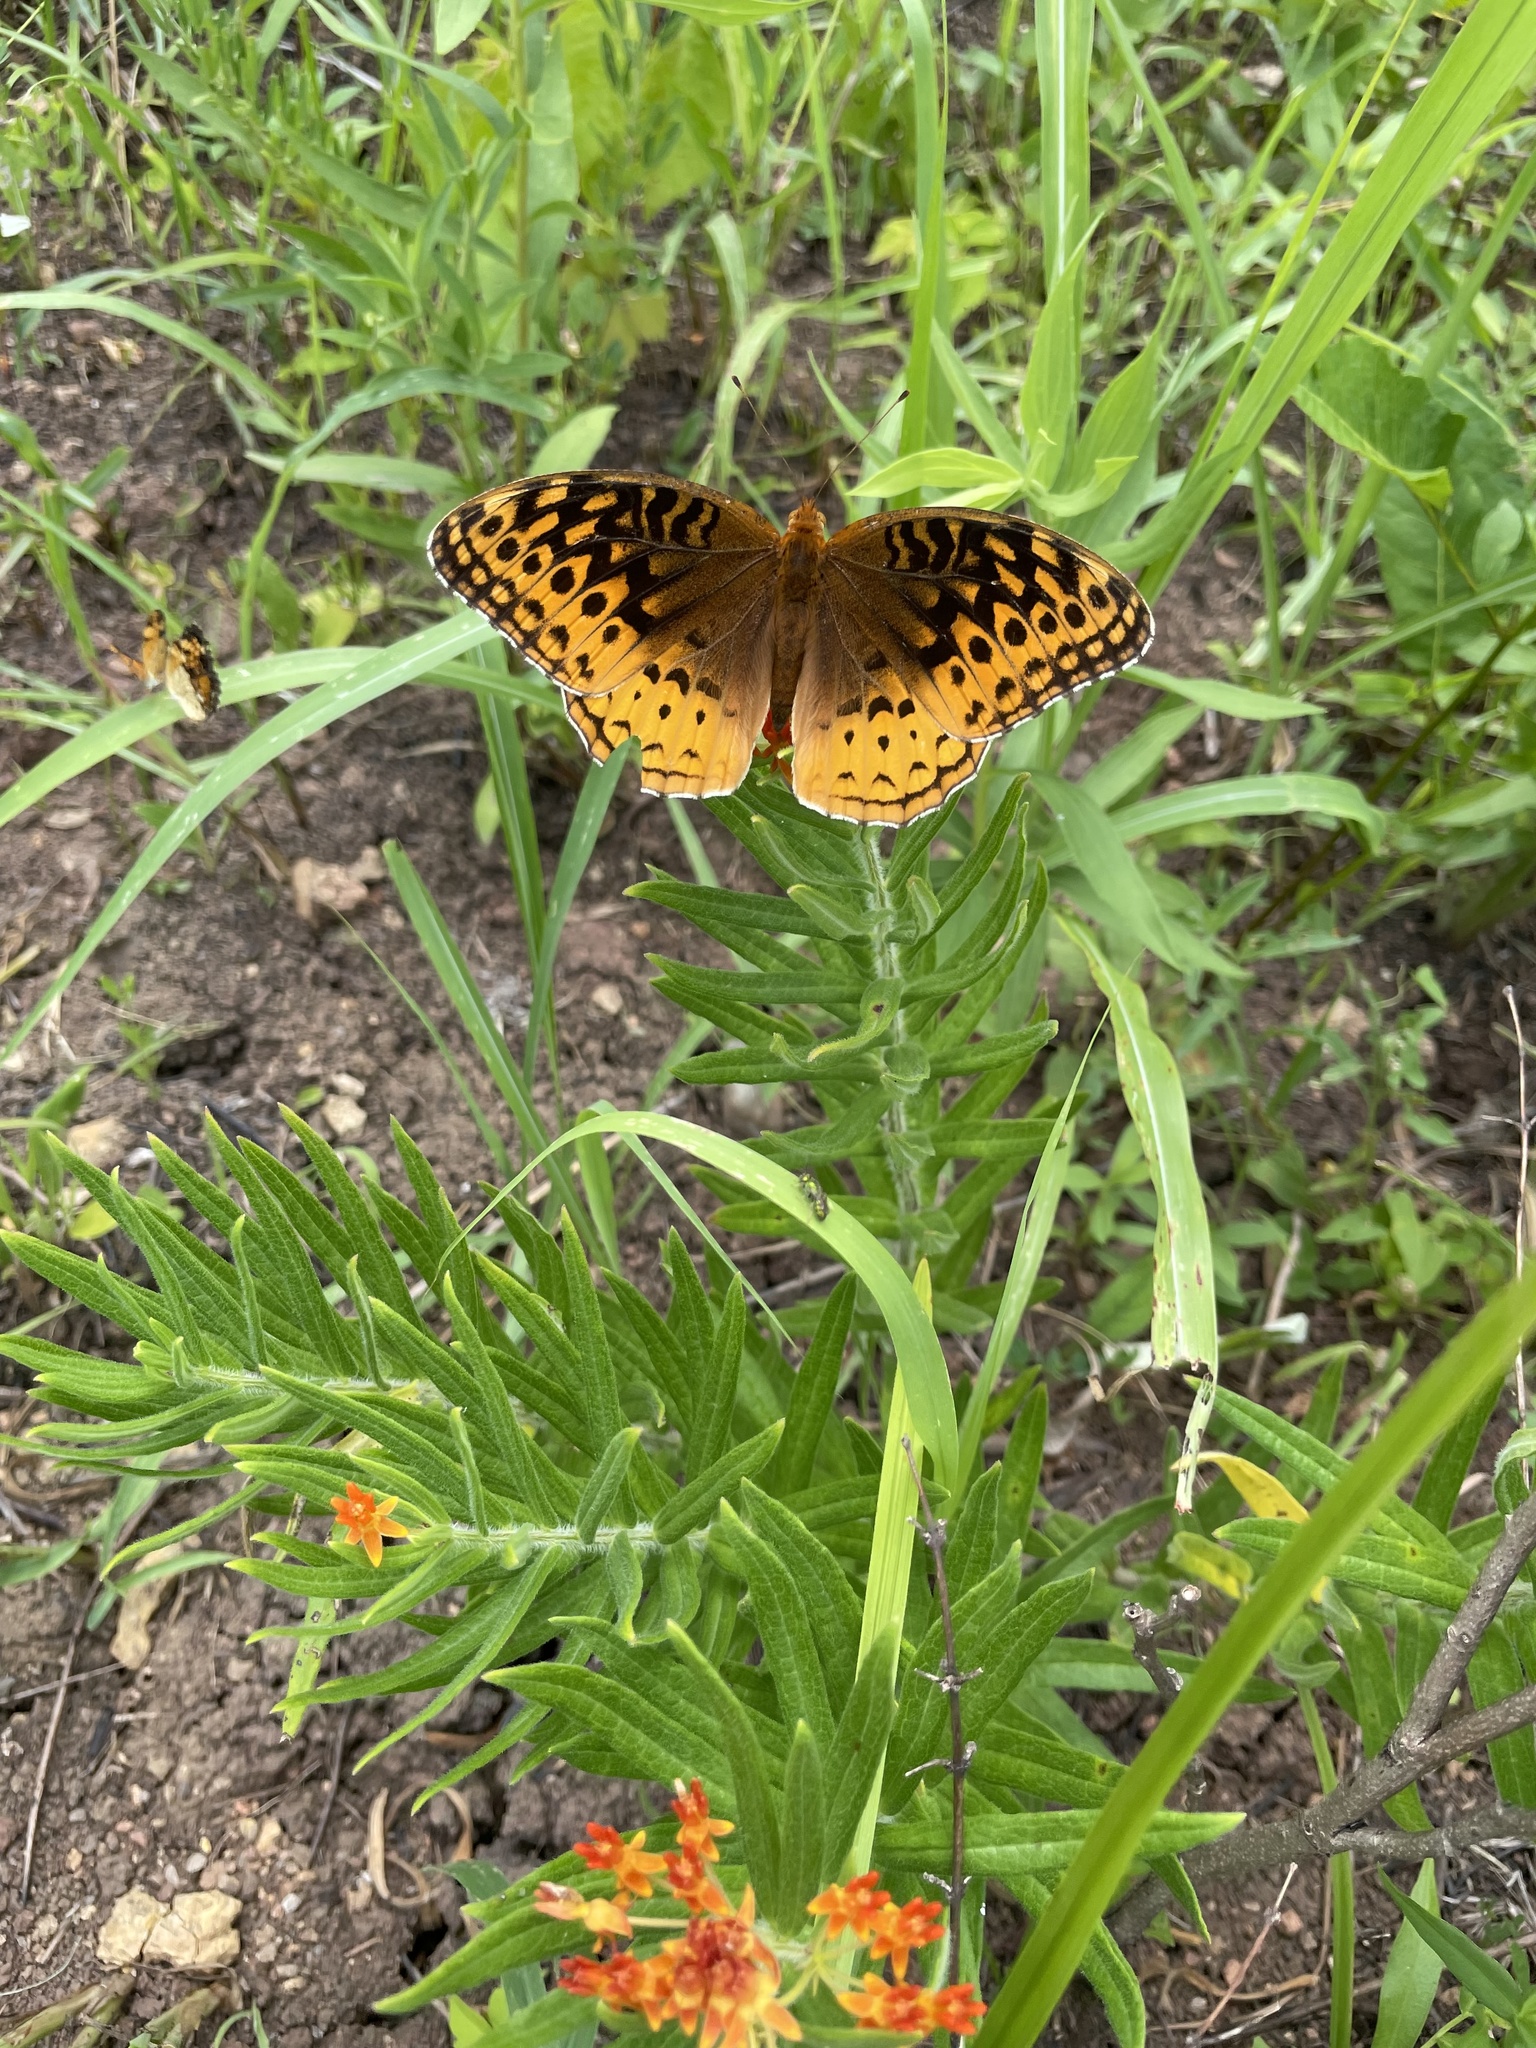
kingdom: Animalia
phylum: Arthropoda
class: Insecta
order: Lepidoptera
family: Nymphalidae
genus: Speyeria
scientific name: Speyeria cybele
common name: Great spangled fritillary
